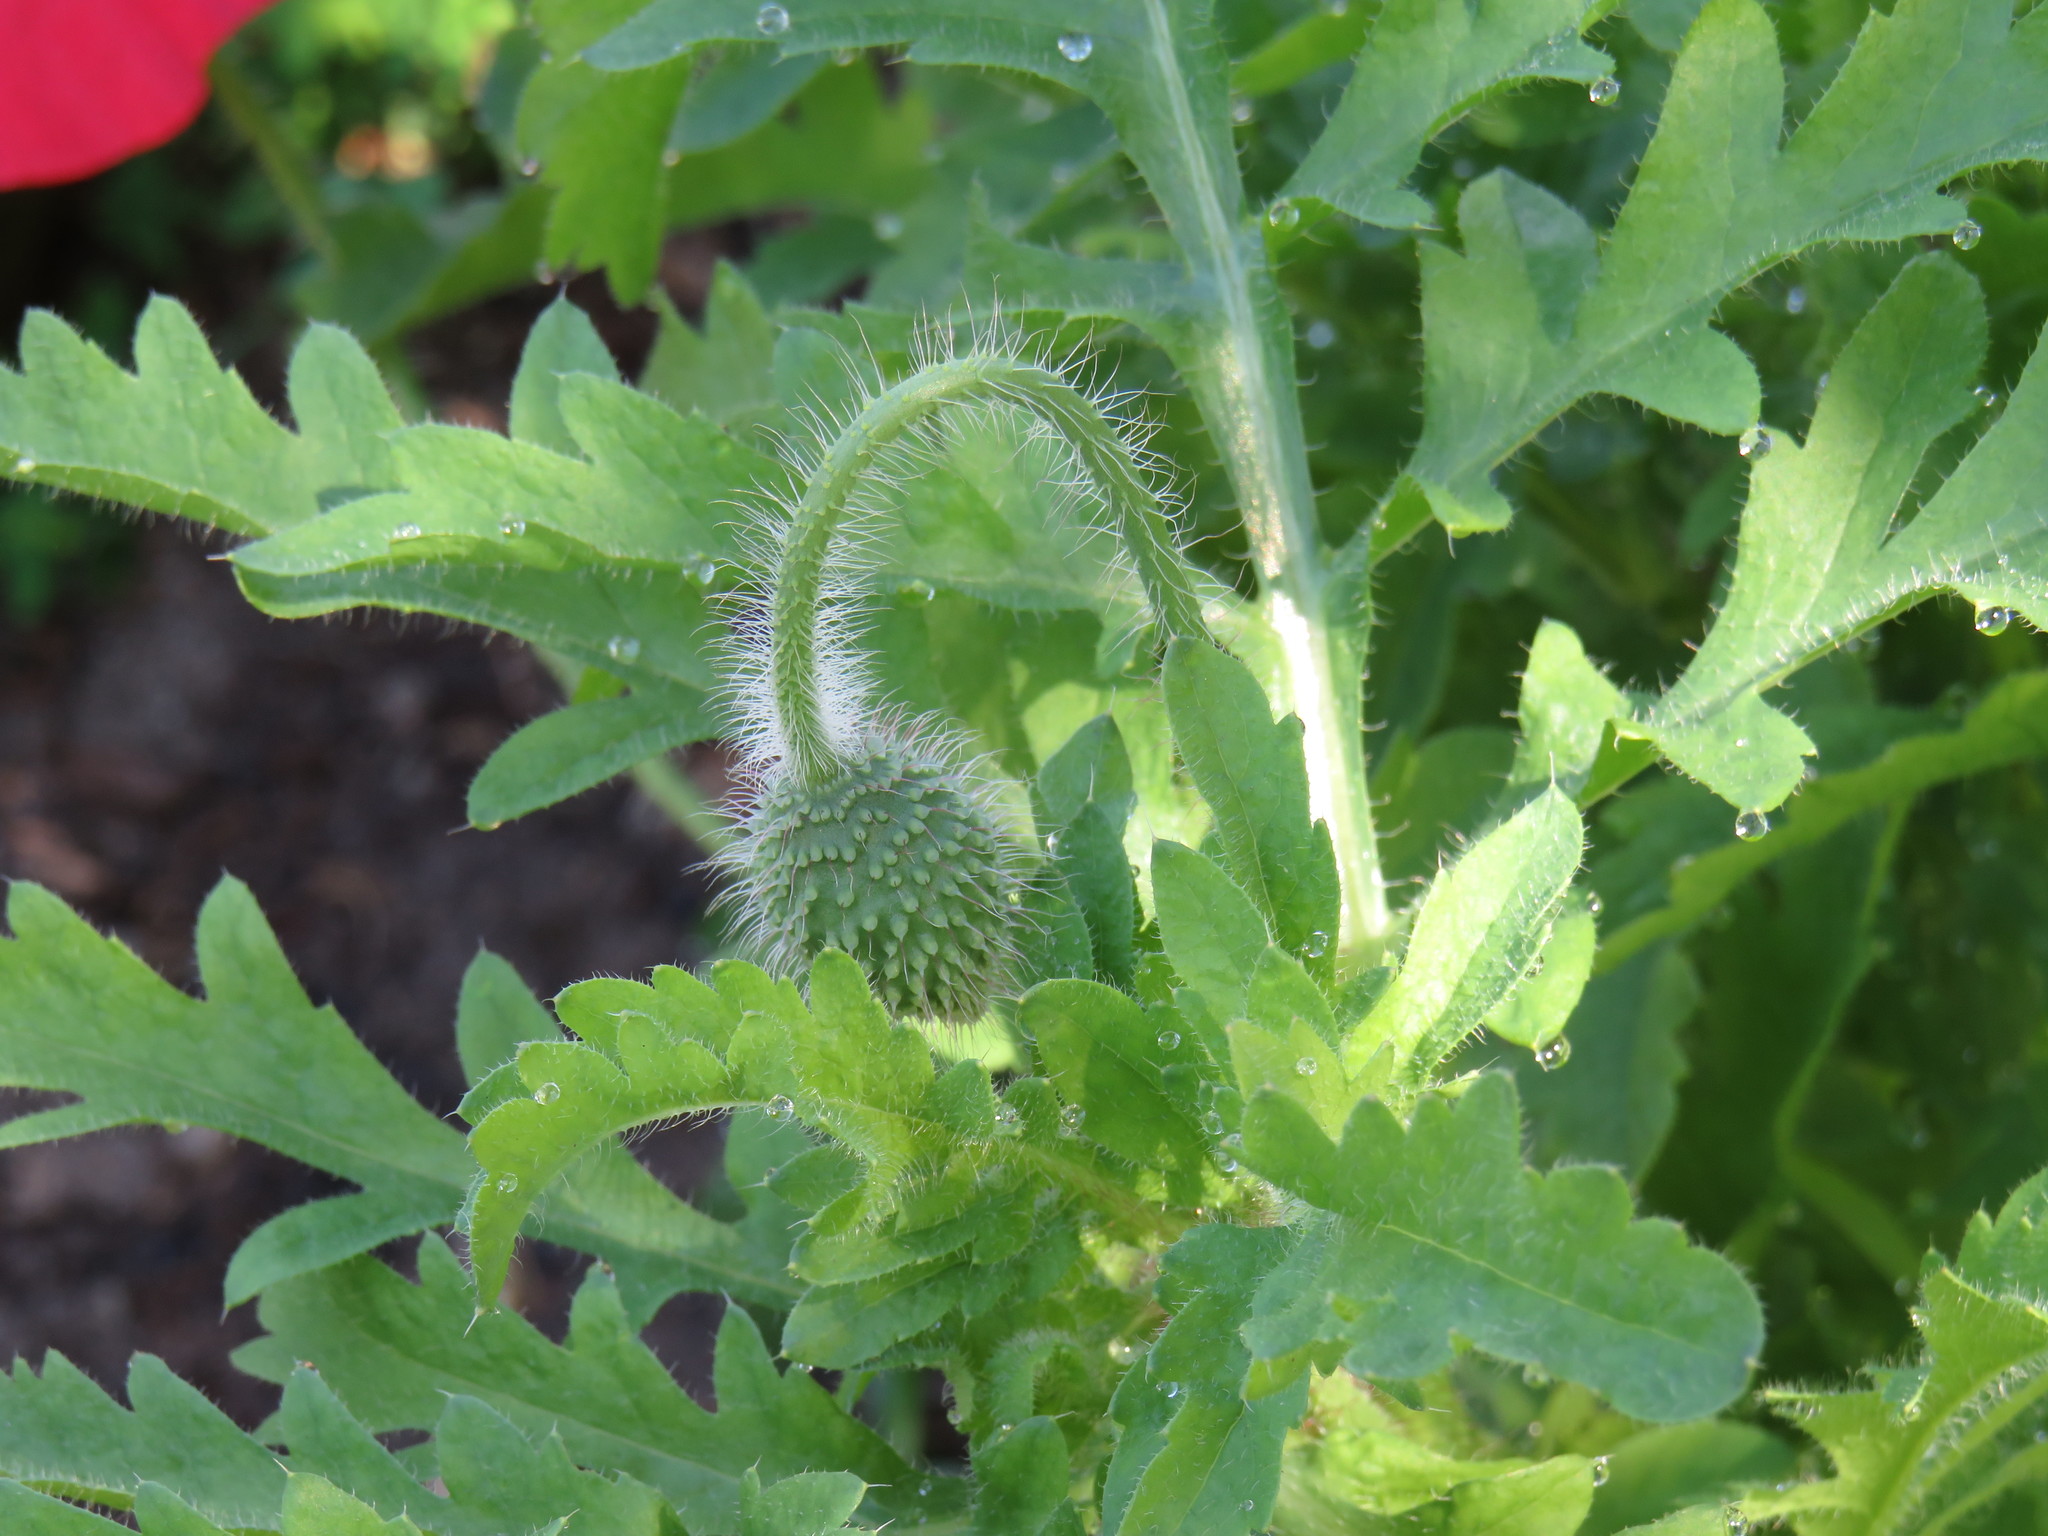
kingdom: Plantae
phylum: Tracheophyta
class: Magnoliopsida
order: Ranunculales
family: Papaveraceae
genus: Papaver
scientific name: Papaver rhoeas
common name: Corn poppy
